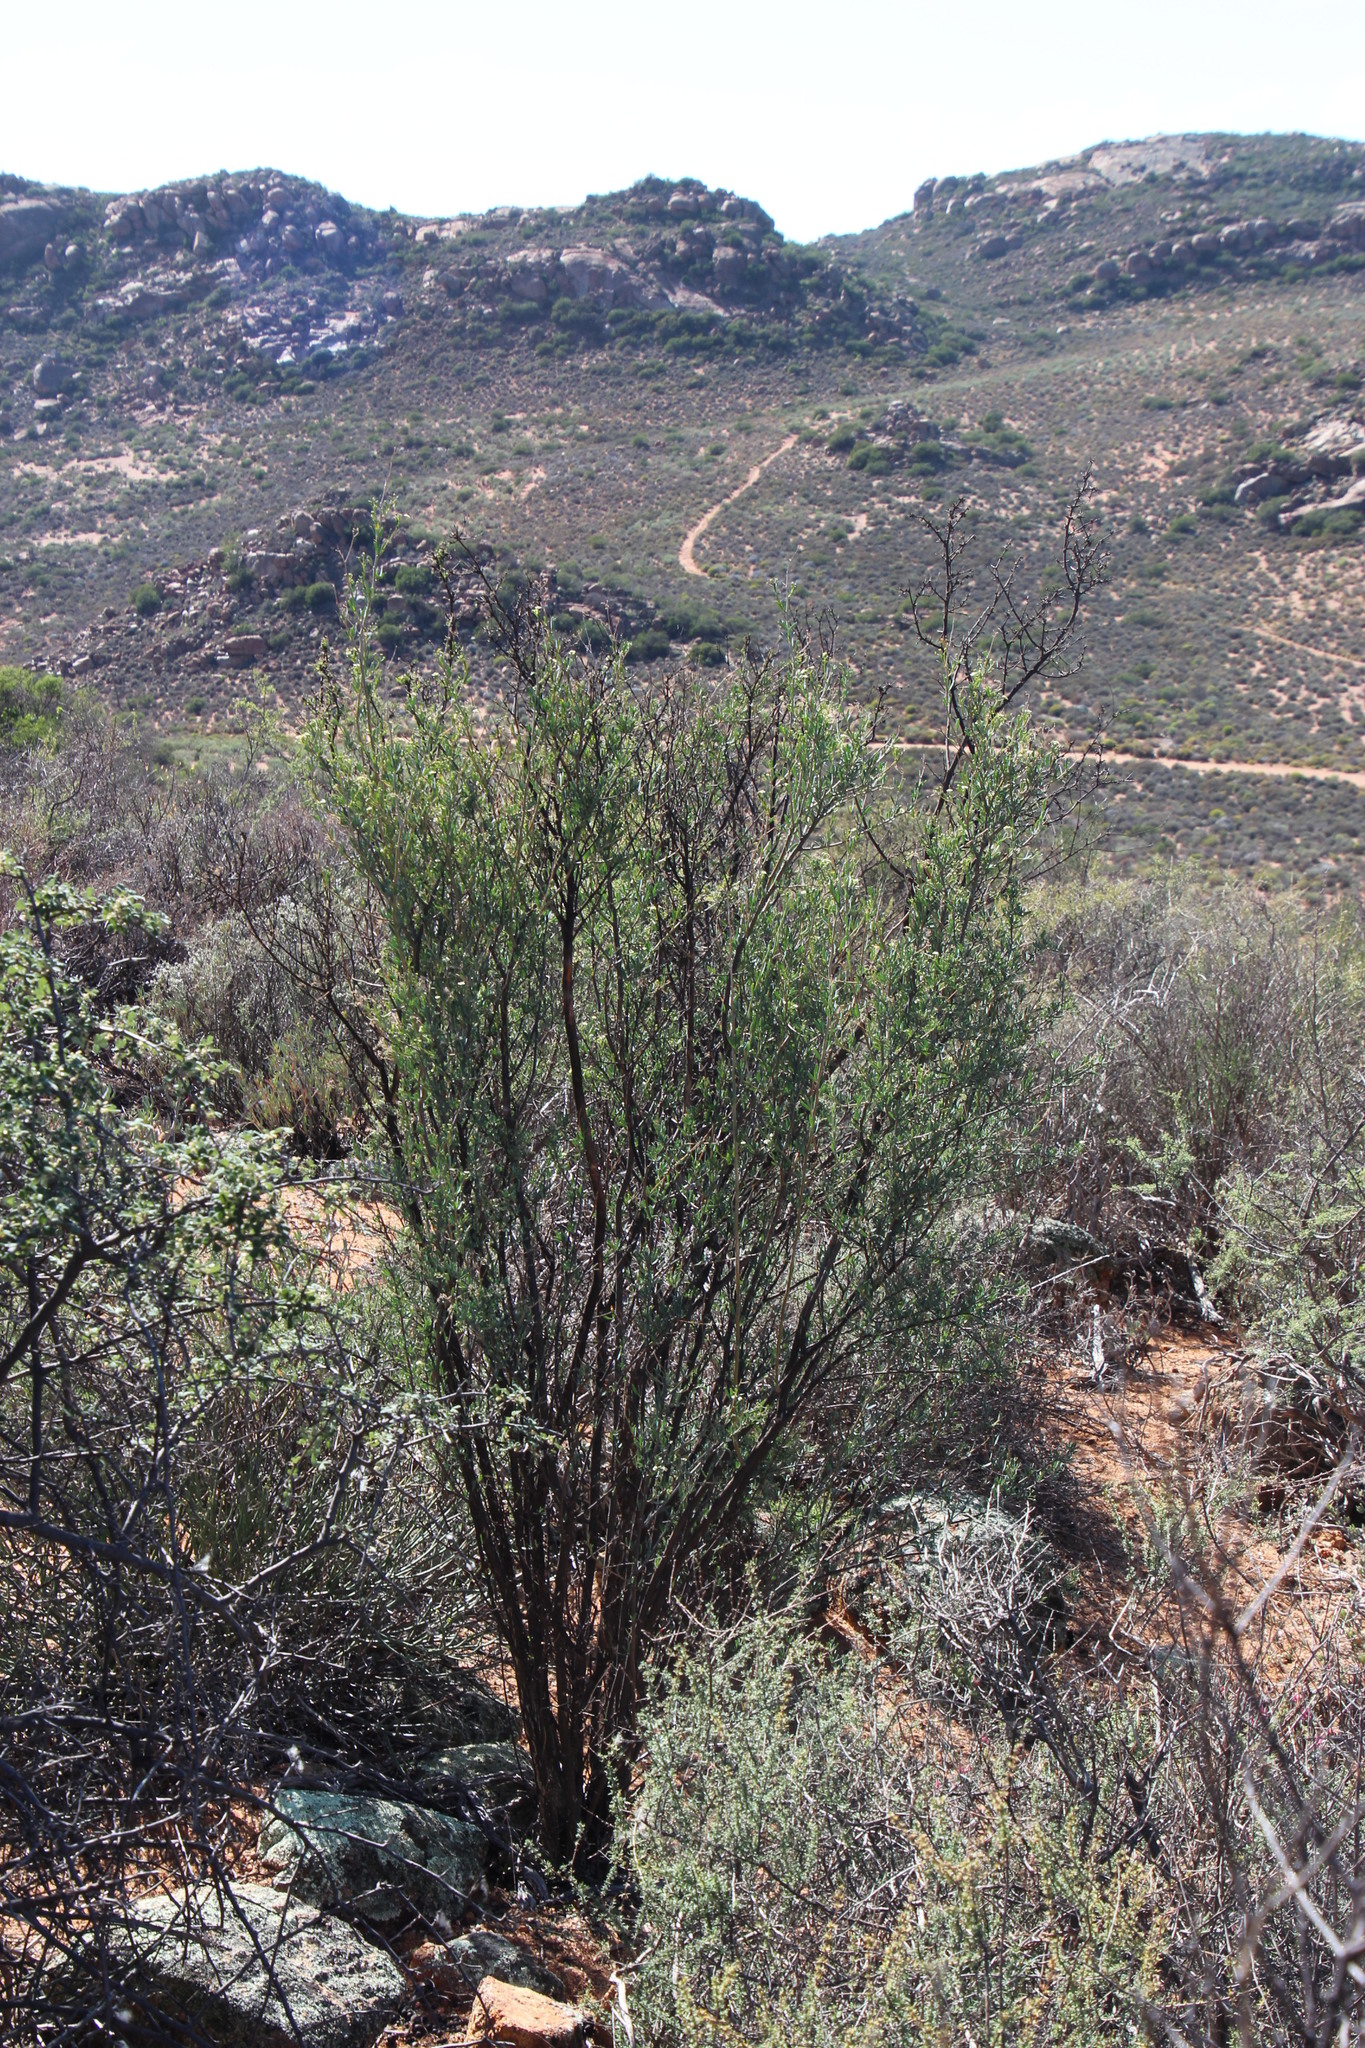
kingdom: Plantae
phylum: Tracheophyta
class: Magnoliopsida
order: Solanales
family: Montiniaceae
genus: Montinia
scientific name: Montinia caryophyllacea
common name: Wild clove-bush
